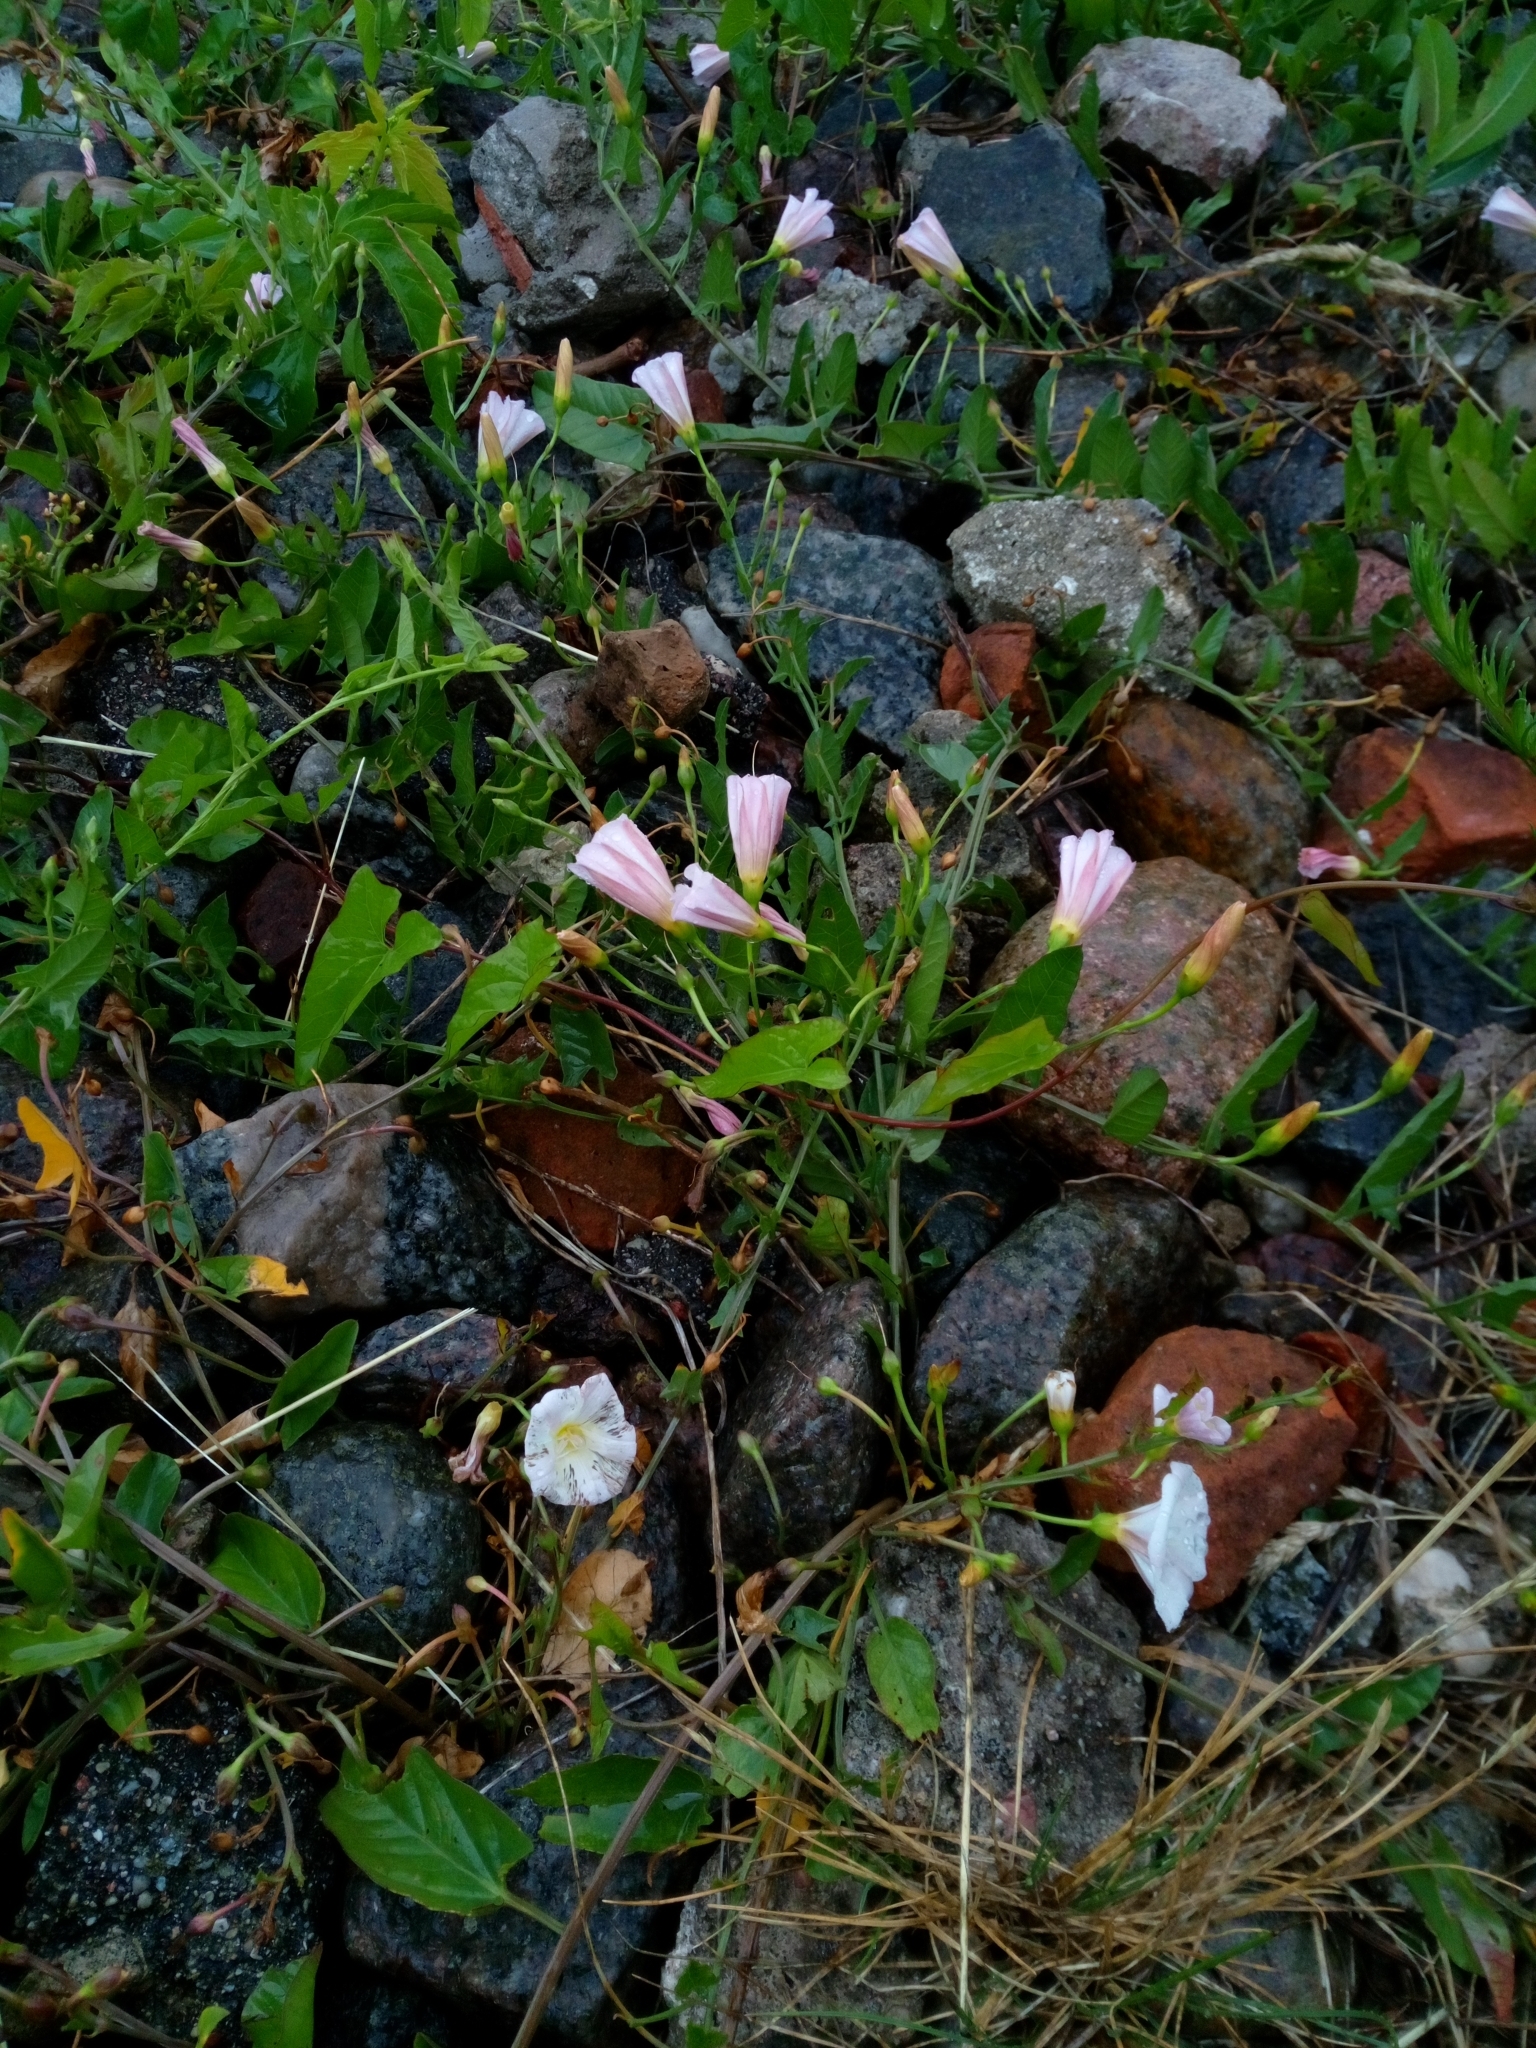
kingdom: Plantae
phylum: Tracheophyta
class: Magnoliopsida
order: Solanales
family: Convolvulaceae
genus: Convolvulus
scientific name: Convolvulus arvensis
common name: Field bindweed
